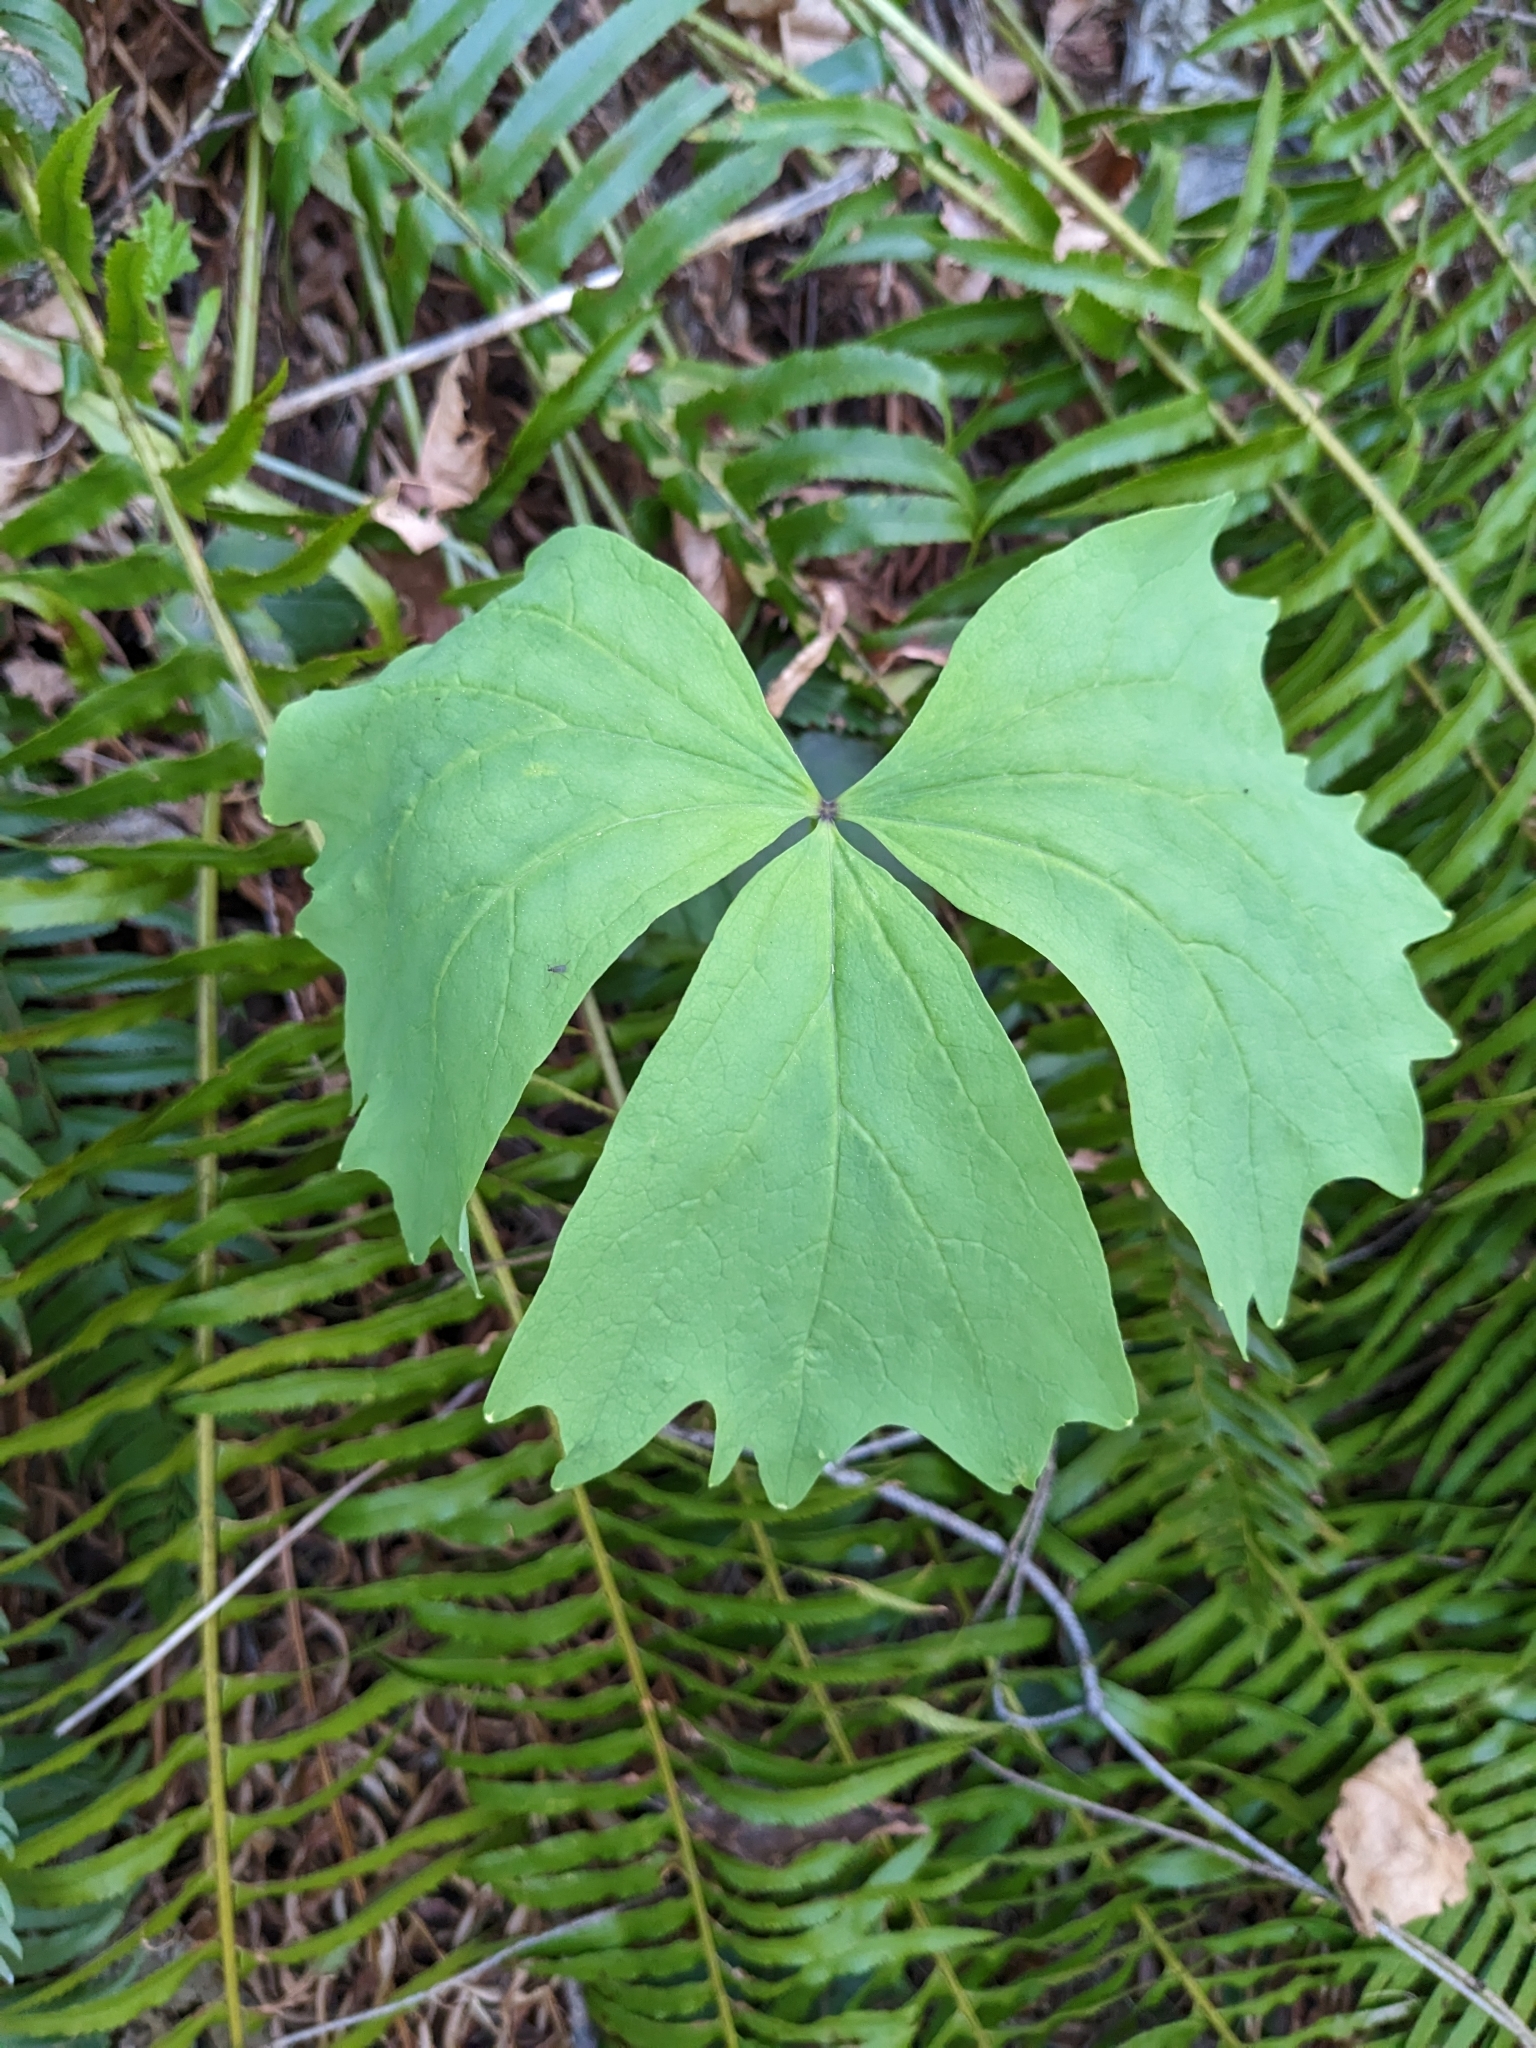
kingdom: Plantae
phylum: Tracheophyta
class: Magnoliopsida
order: Ranunculales
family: Berberidaceae
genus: Achlys
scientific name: Achlys triphylla
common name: Vanilla-leaf
